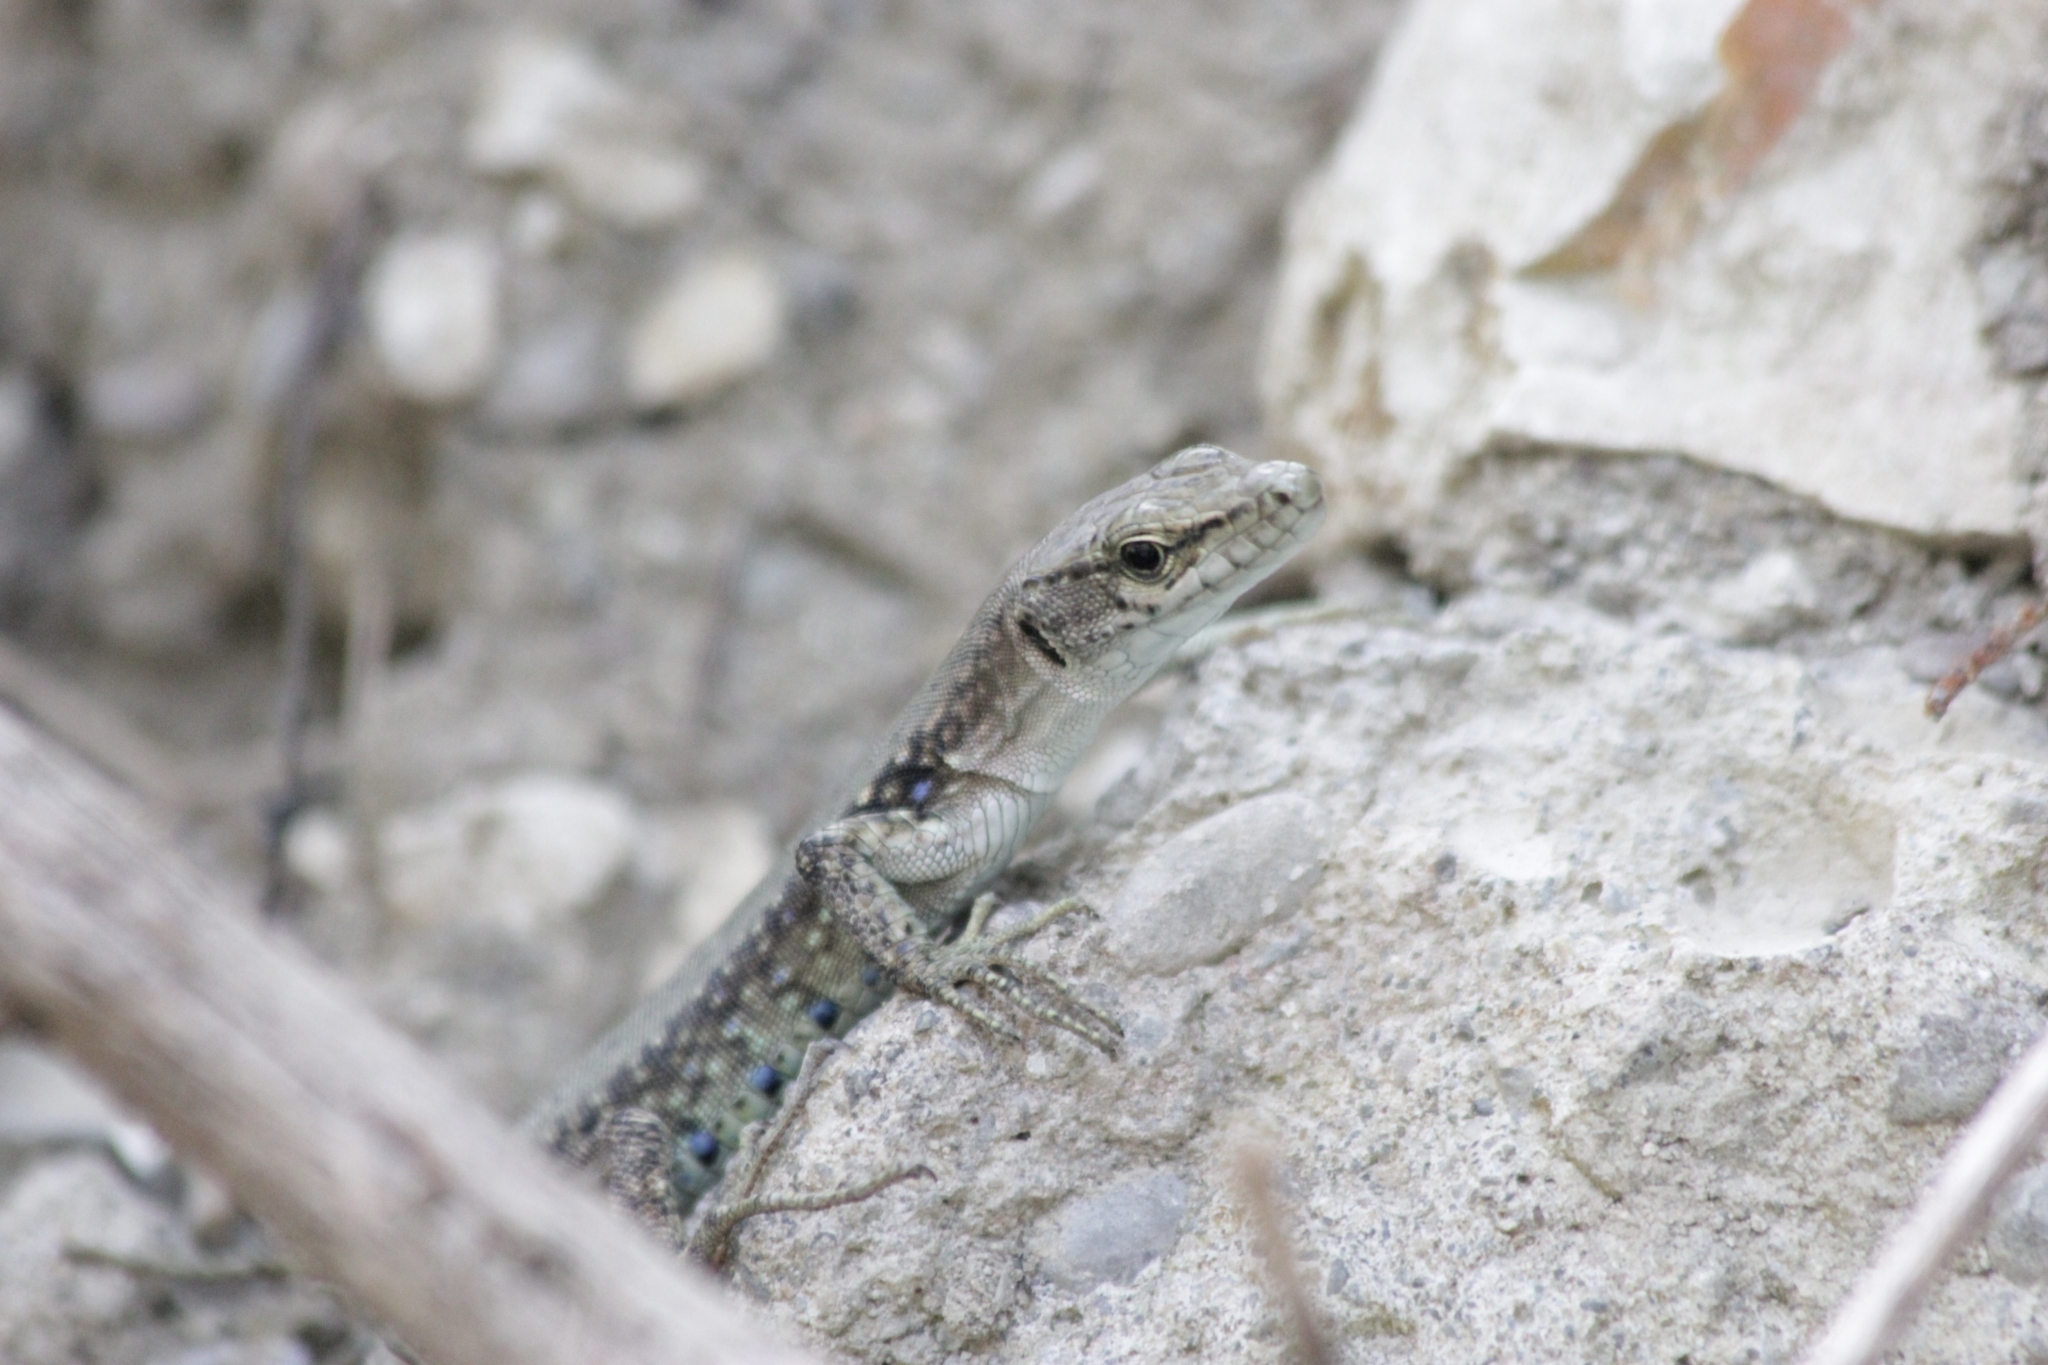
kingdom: Animalia
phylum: Chordata
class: Squamata
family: Lacertidae
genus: Darevskia
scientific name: Darevskia brauneri
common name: Brauner's rock lizard
